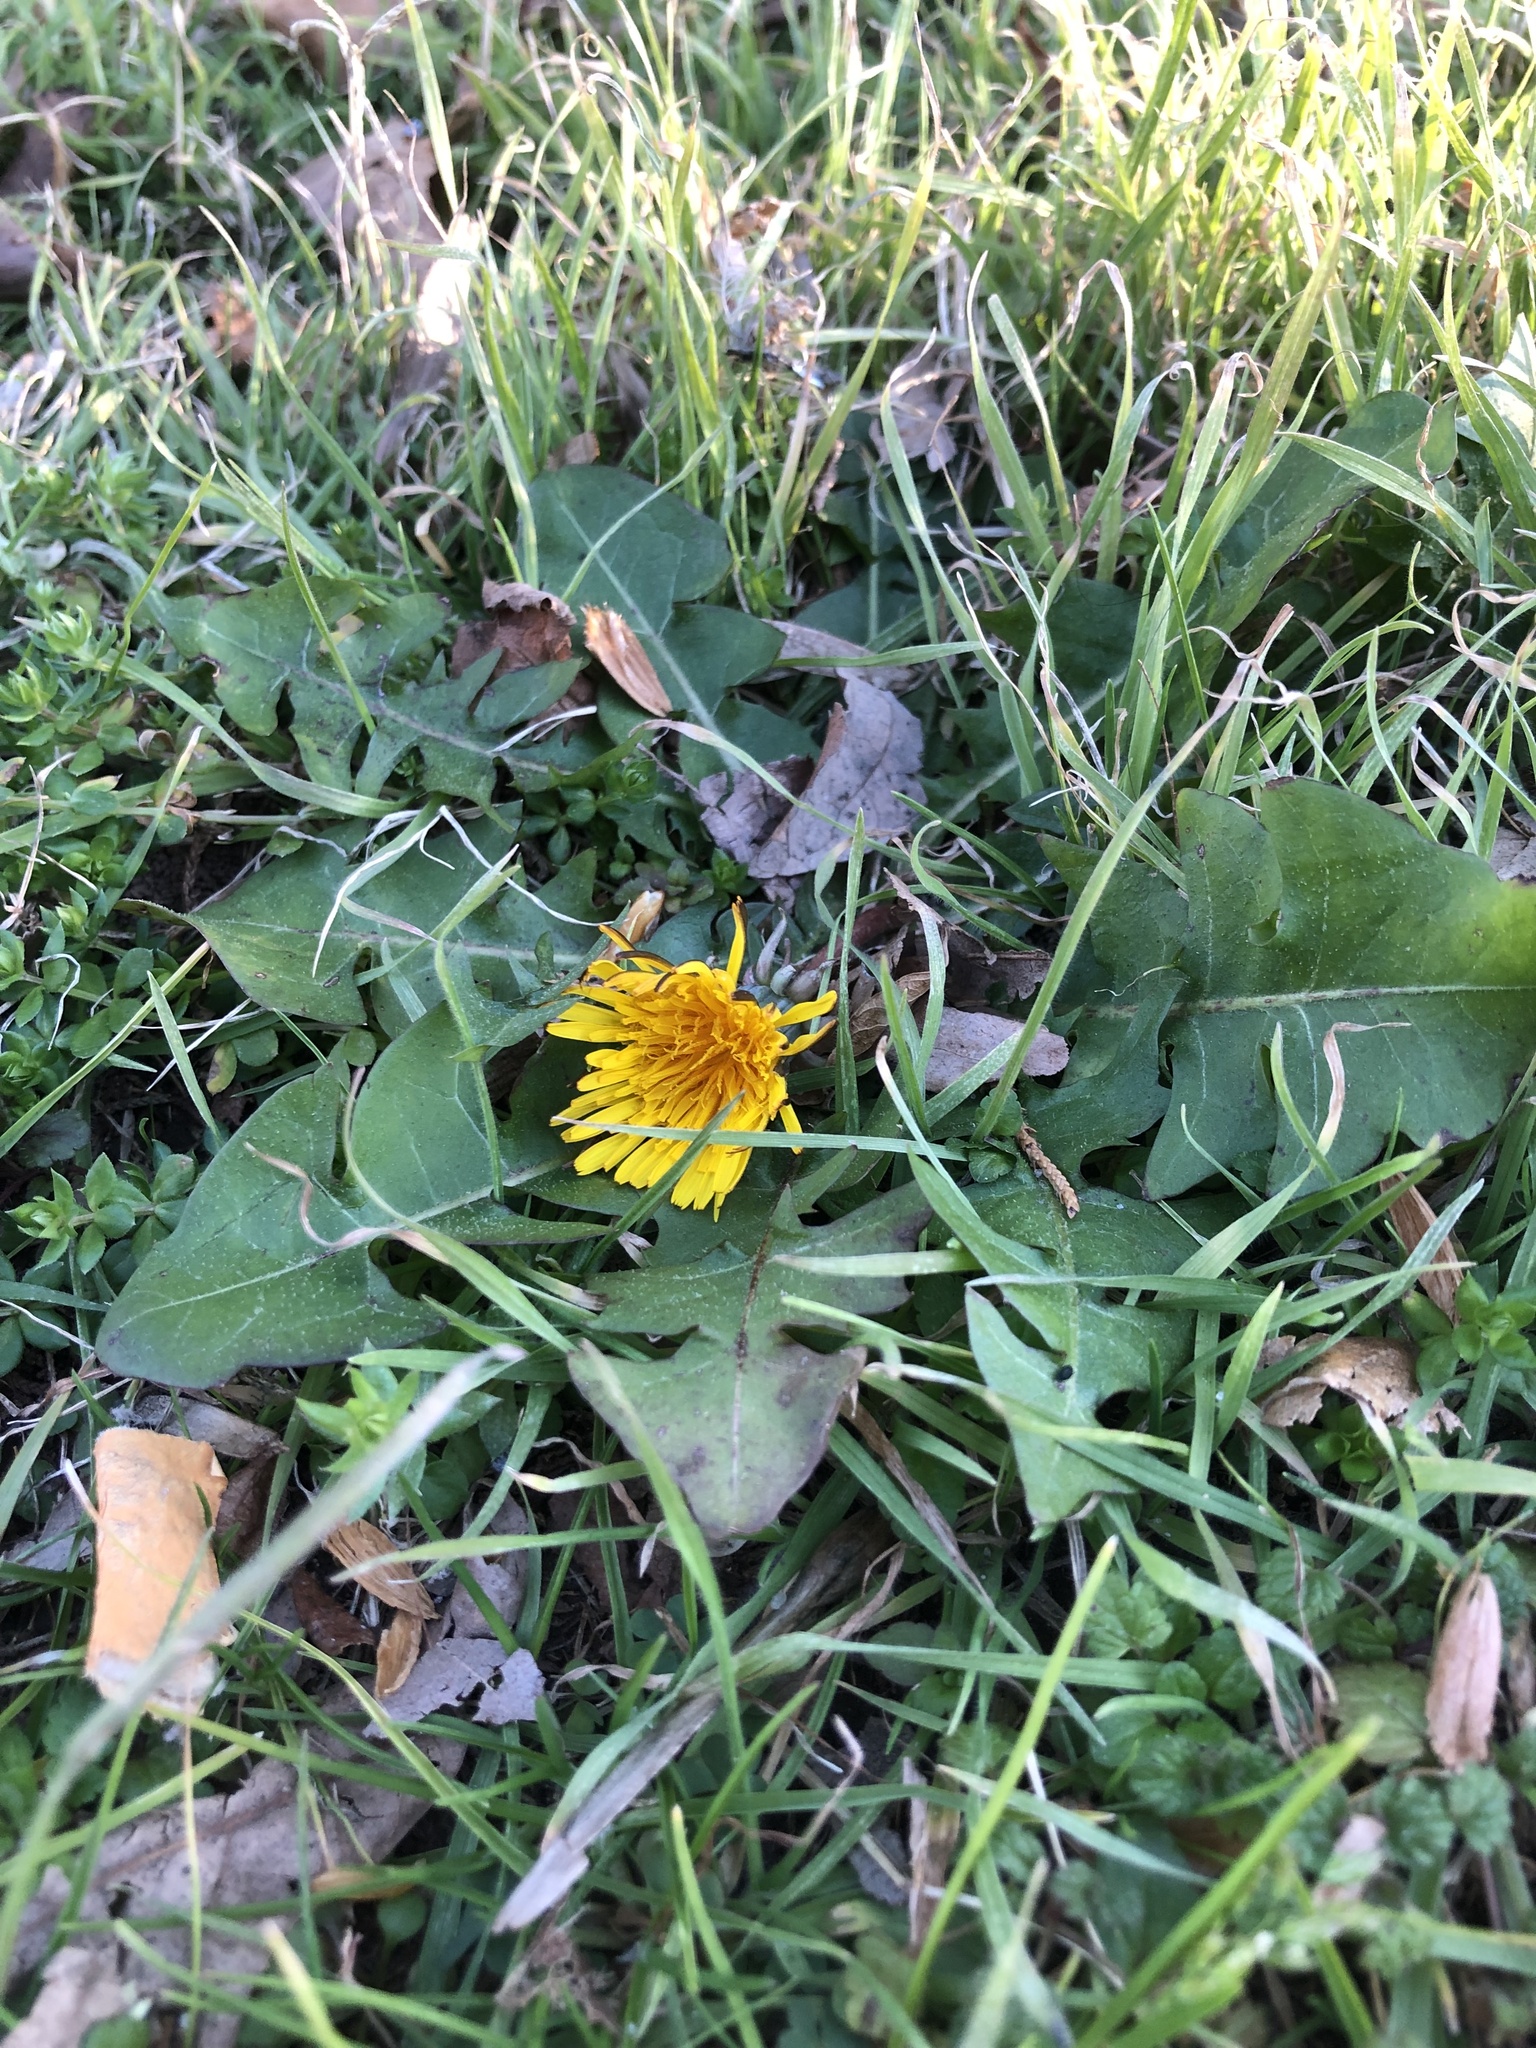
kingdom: Plantae
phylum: Tracheophyta
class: Magnoliopsida
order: Asterales
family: Asteraceae
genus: Taraxacum
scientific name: Taraxacum
